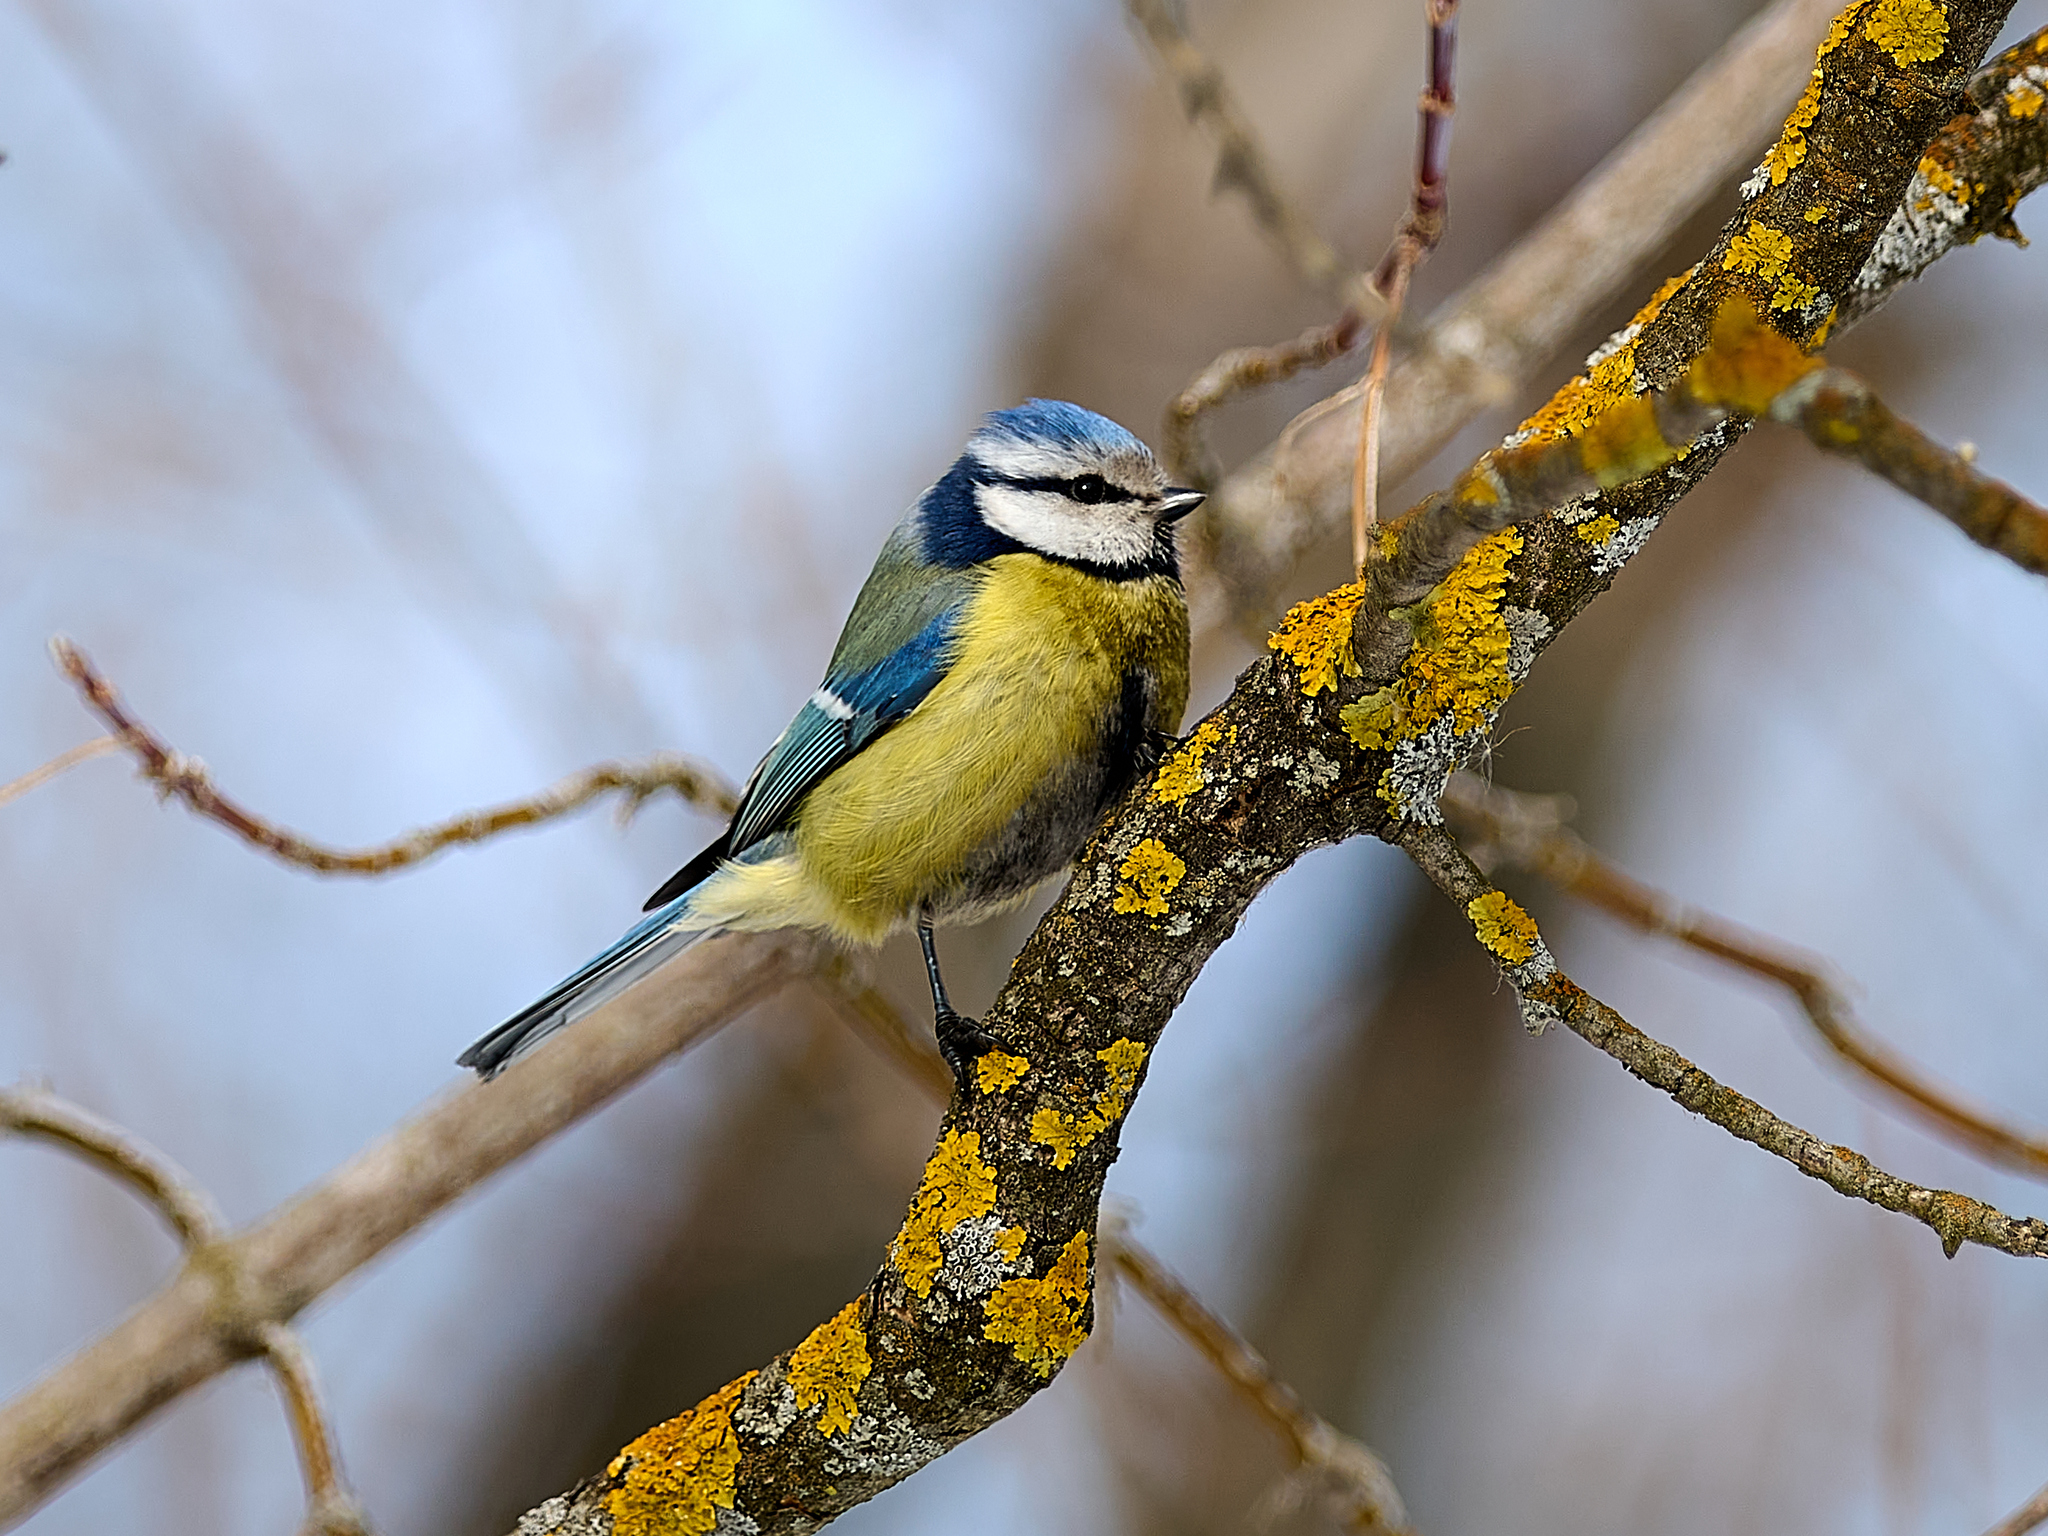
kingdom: Animalia
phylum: Chordata
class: Aves
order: Passeriformes
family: Paridae
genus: Cyanistes
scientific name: Cyanistes caeruleus
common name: Eurasian blue tit
